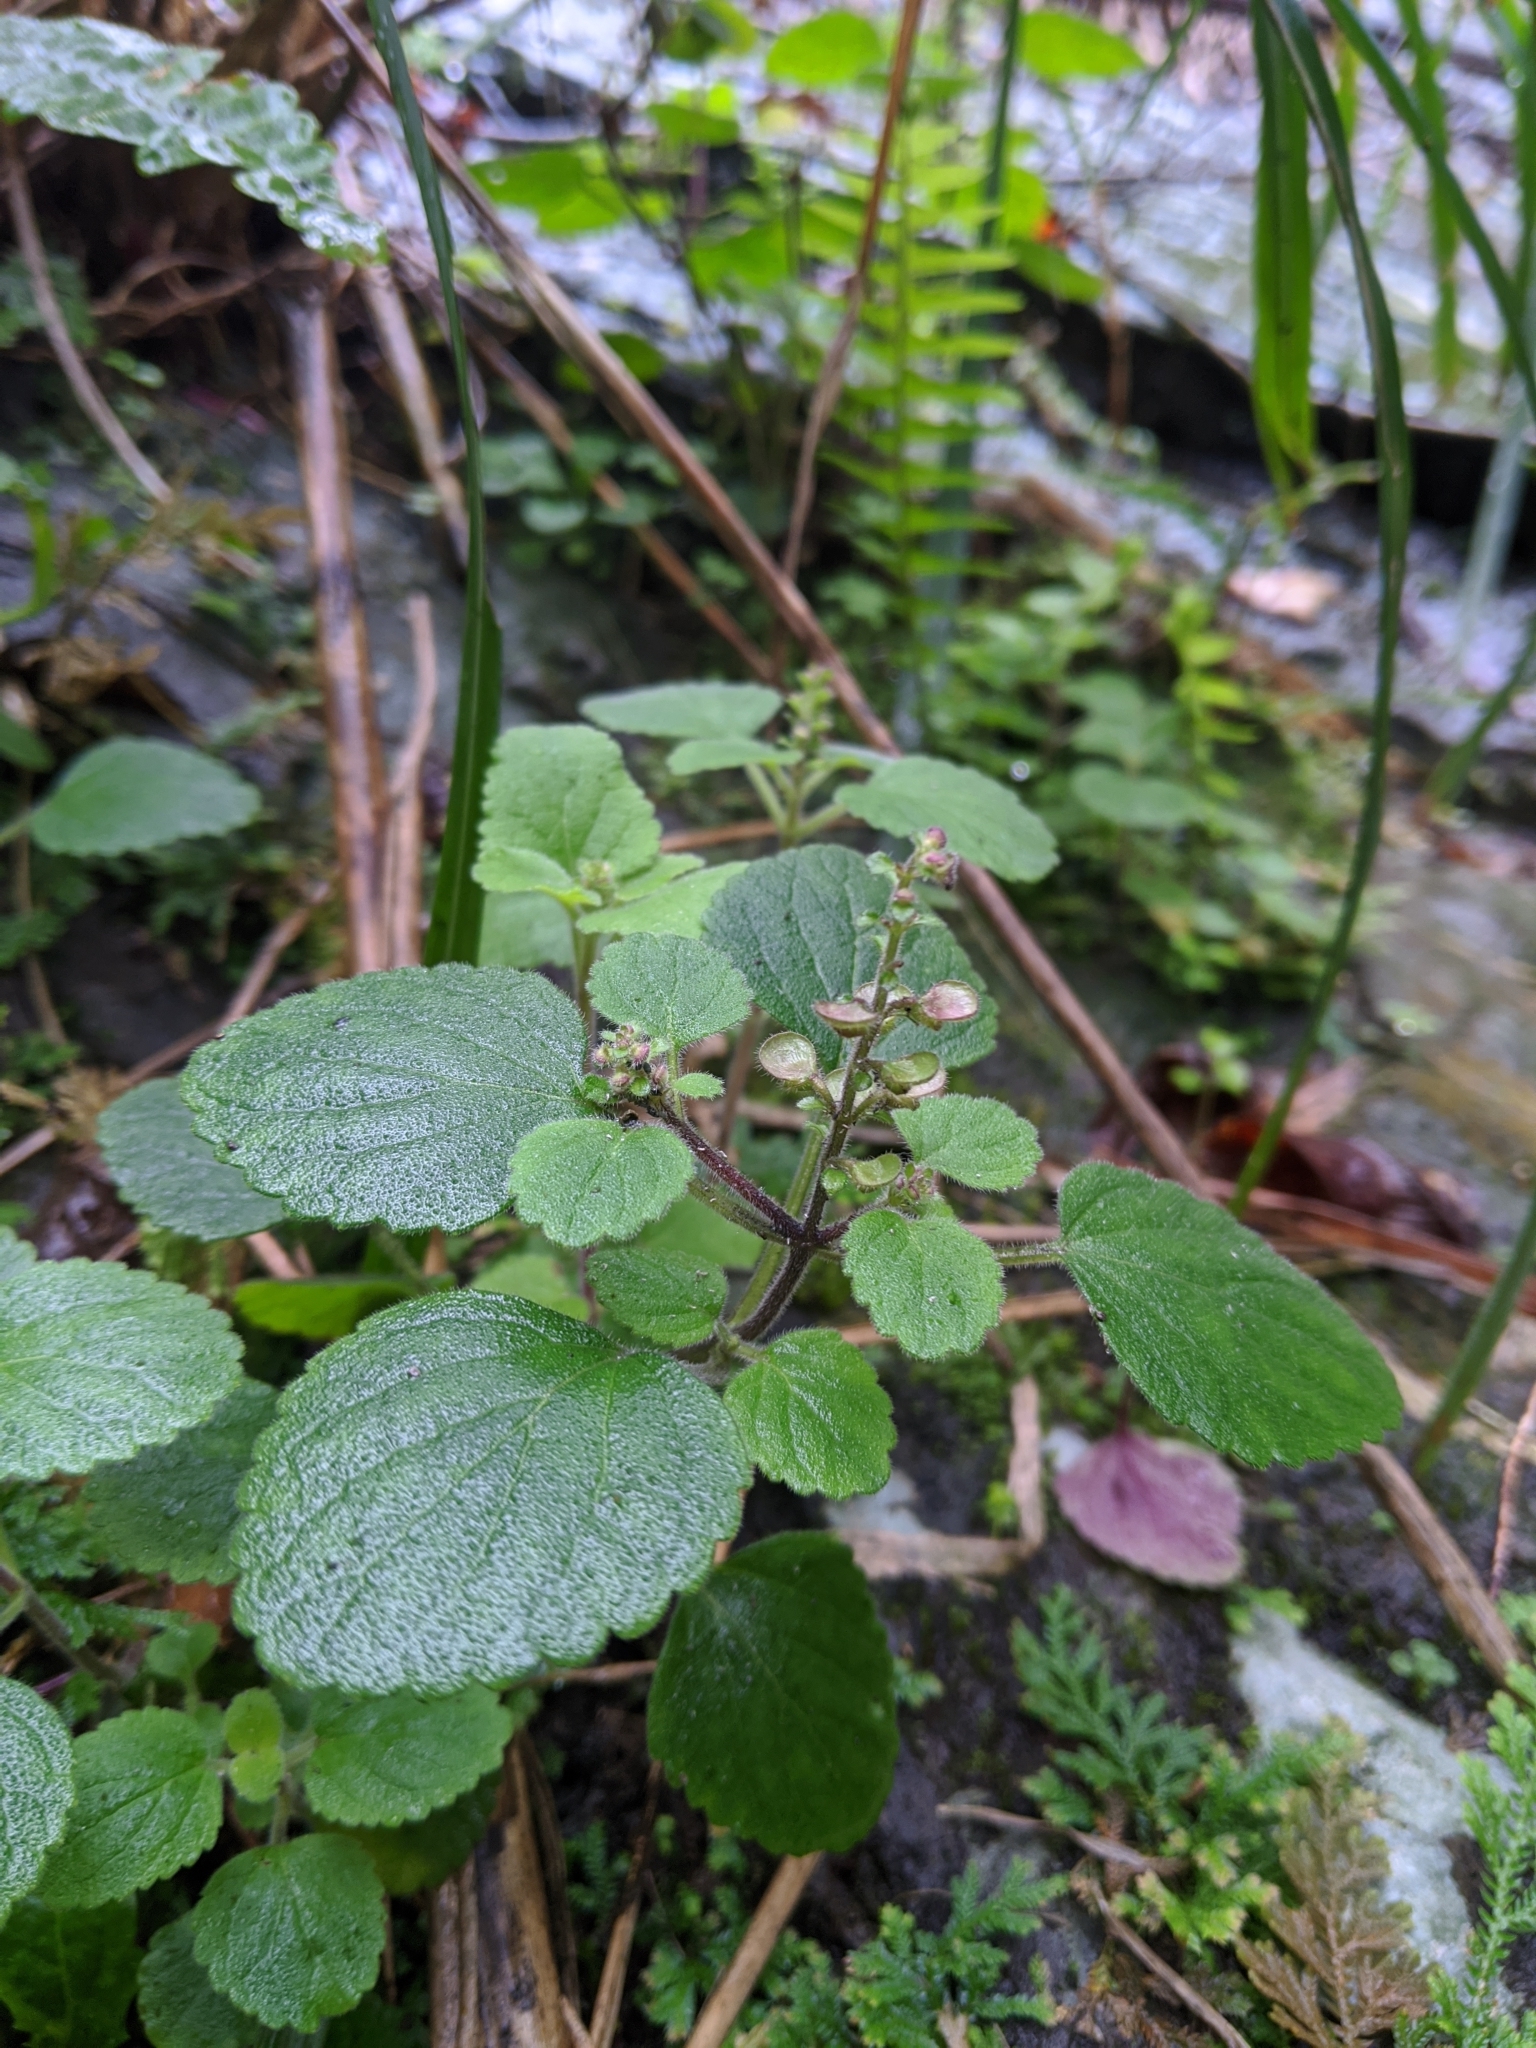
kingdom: Plantae
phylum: Tracheophyta
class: Magnoliopsida
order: Lamiales
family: Lamiaceae
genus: Scutellaria
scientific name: Scutellaria indica
